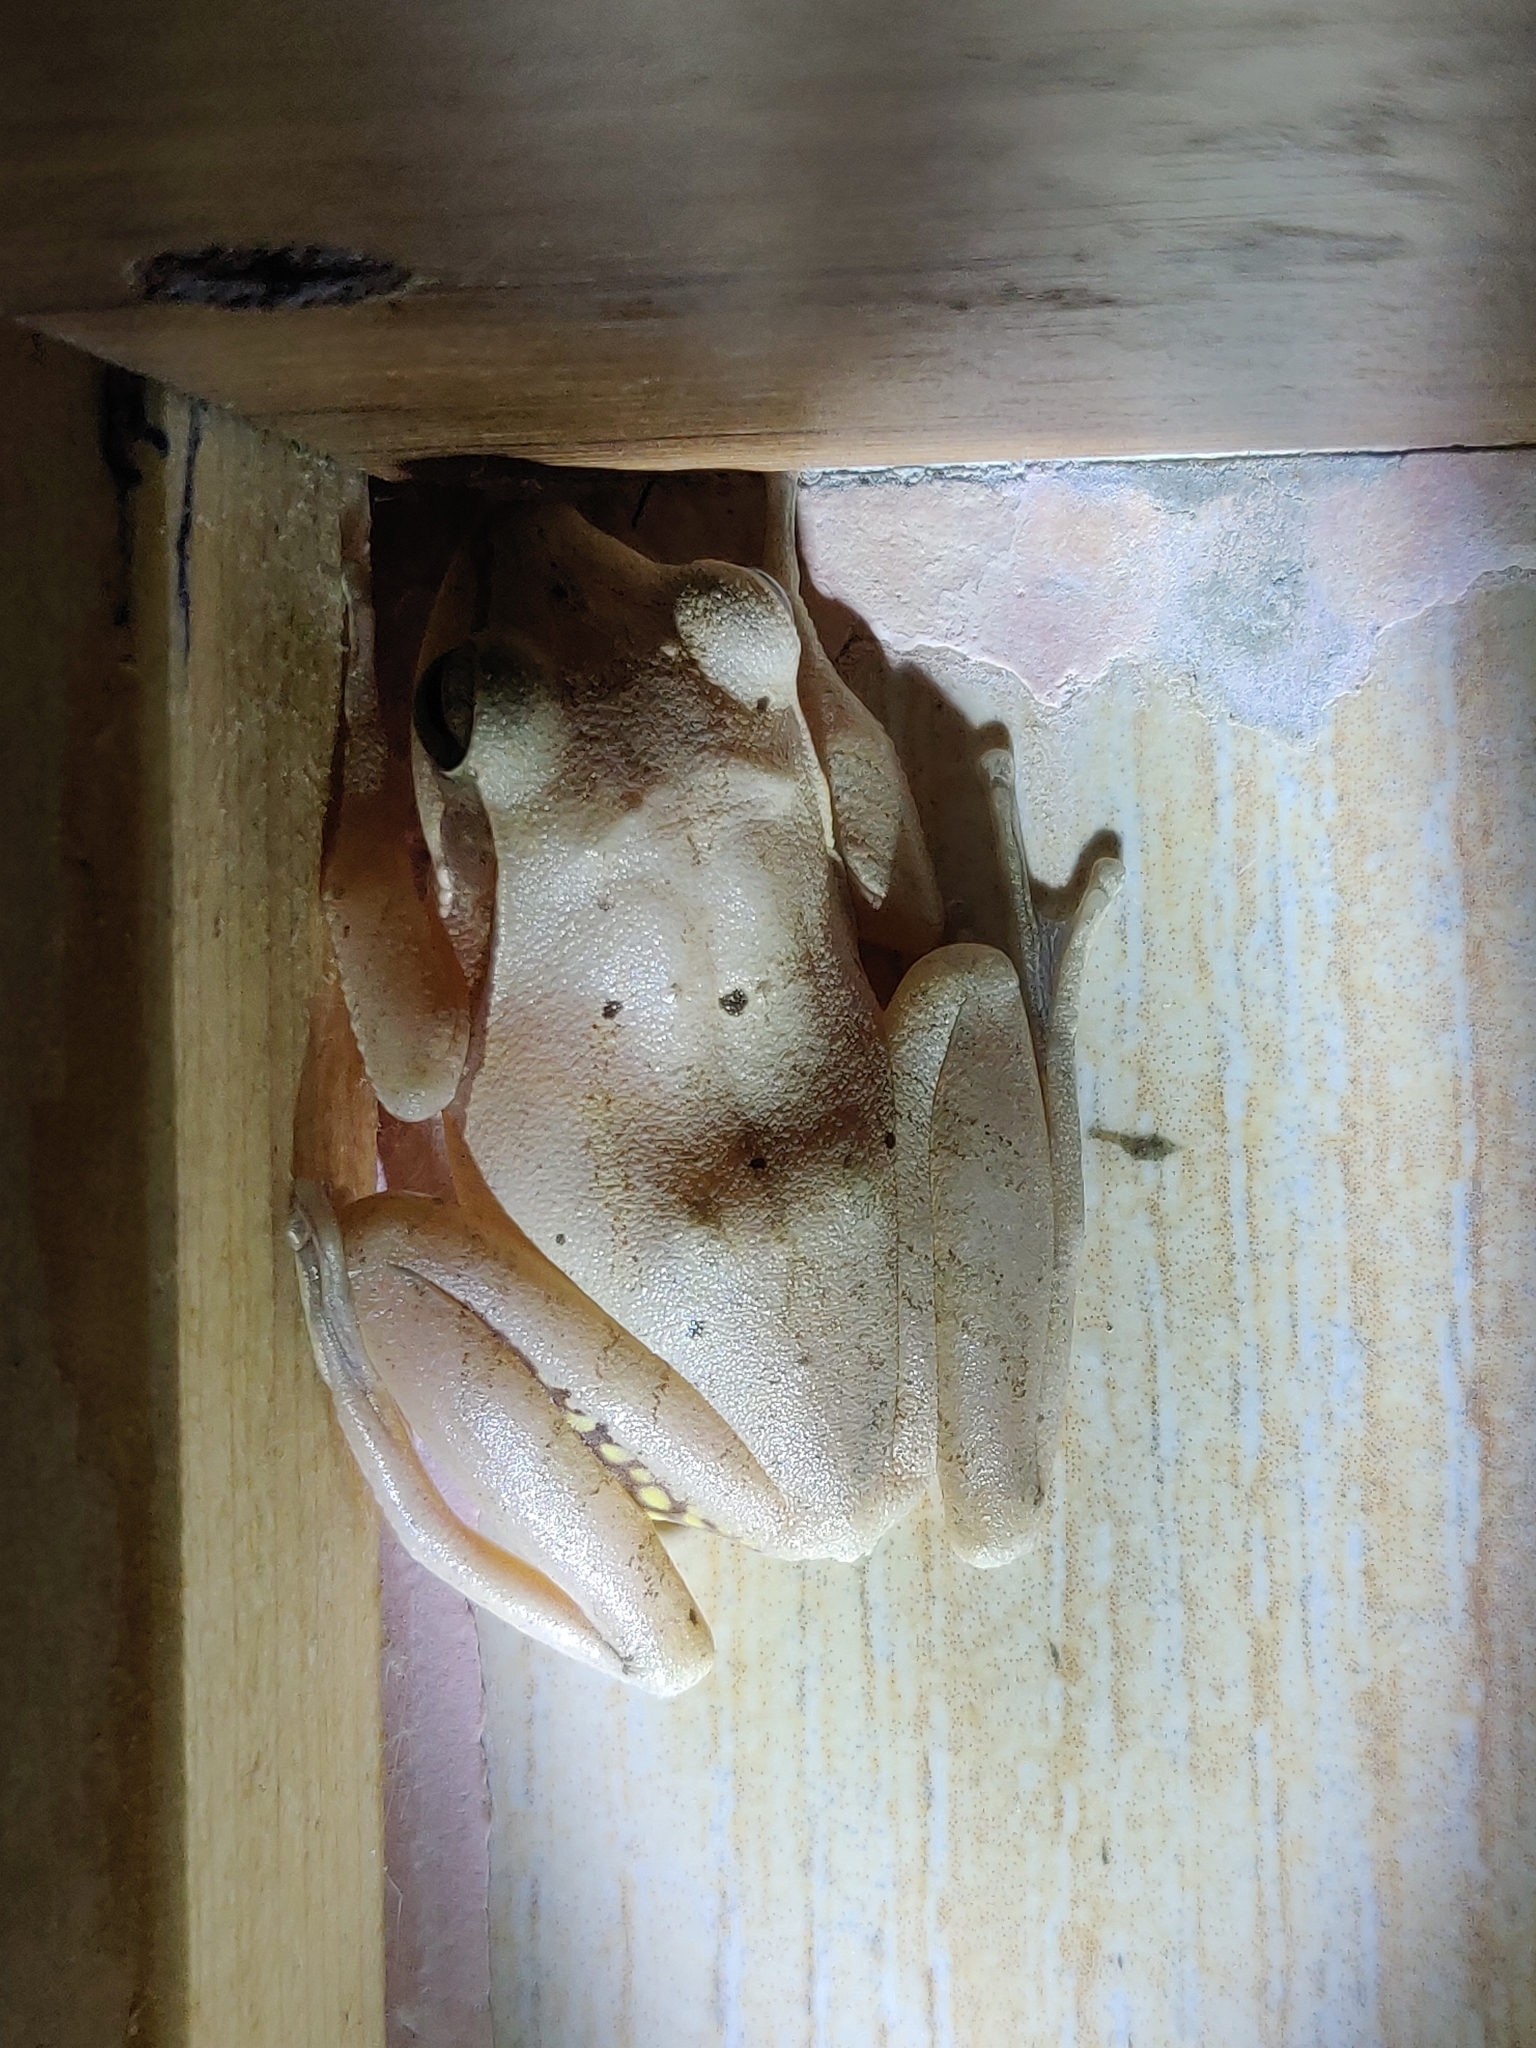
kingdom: Animalia
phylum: Chordata
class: Amphibia
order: Anura
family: Rhacophoridae
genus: Polypedates
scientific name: Polypedates maculatus
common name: Himalayan tree frog
